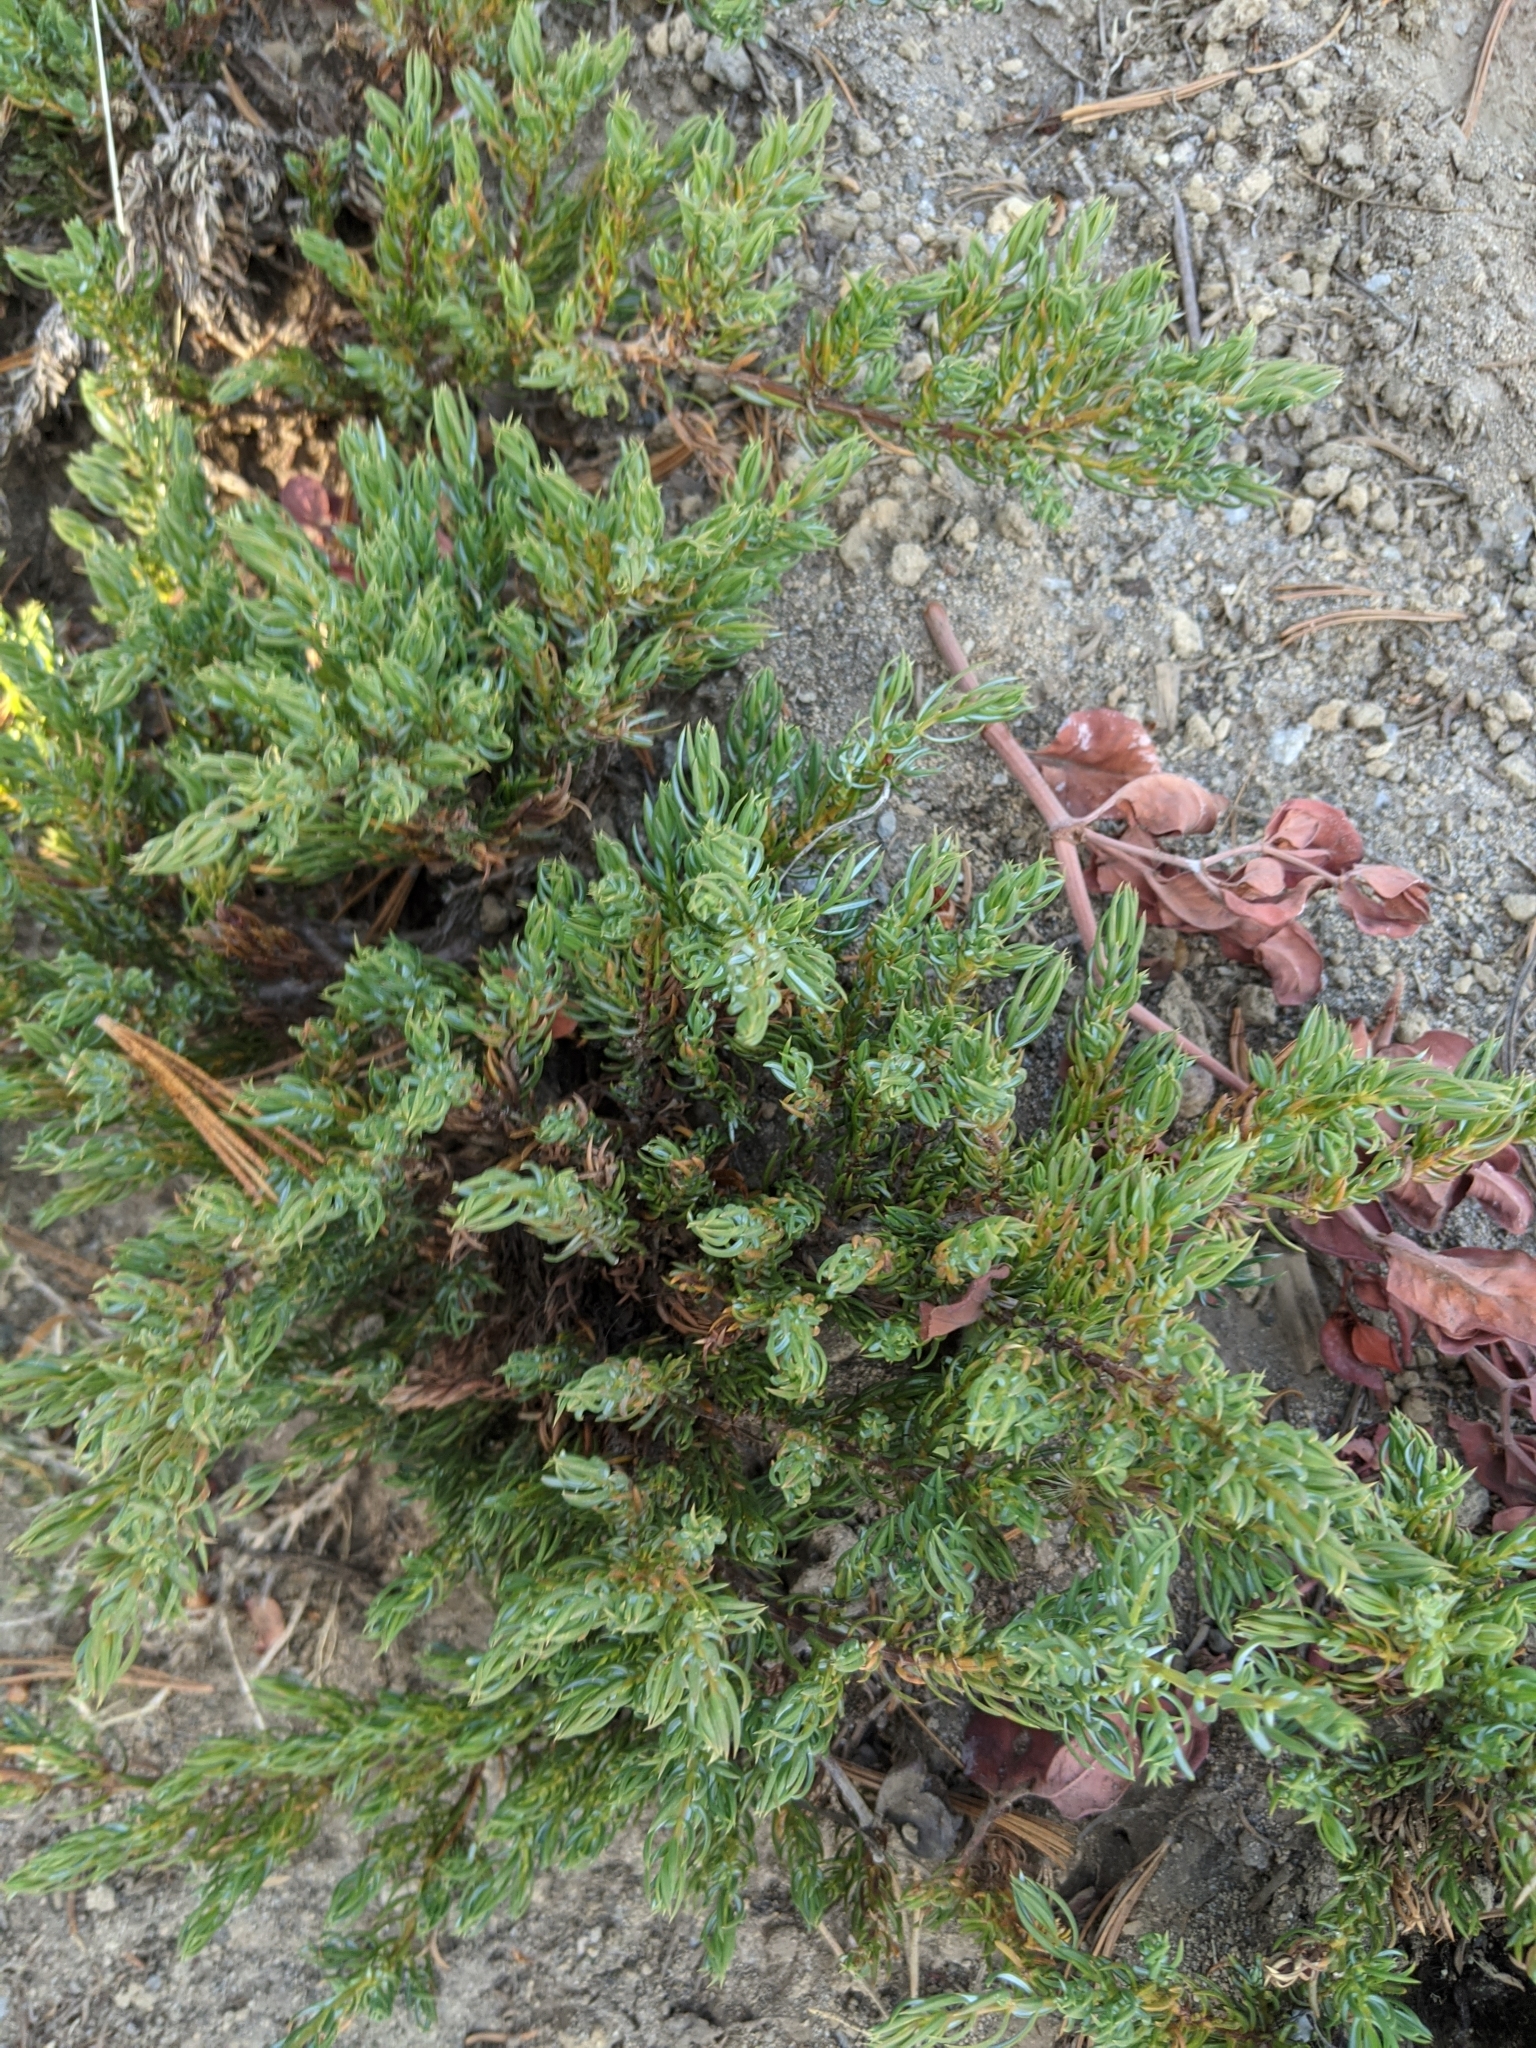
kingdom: Plantae
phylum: Tracheophyta
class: Pinopsida
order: Pinales
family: Cupressaceae
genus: Juniperus
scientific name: Juniperus communis
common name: Common juniper
